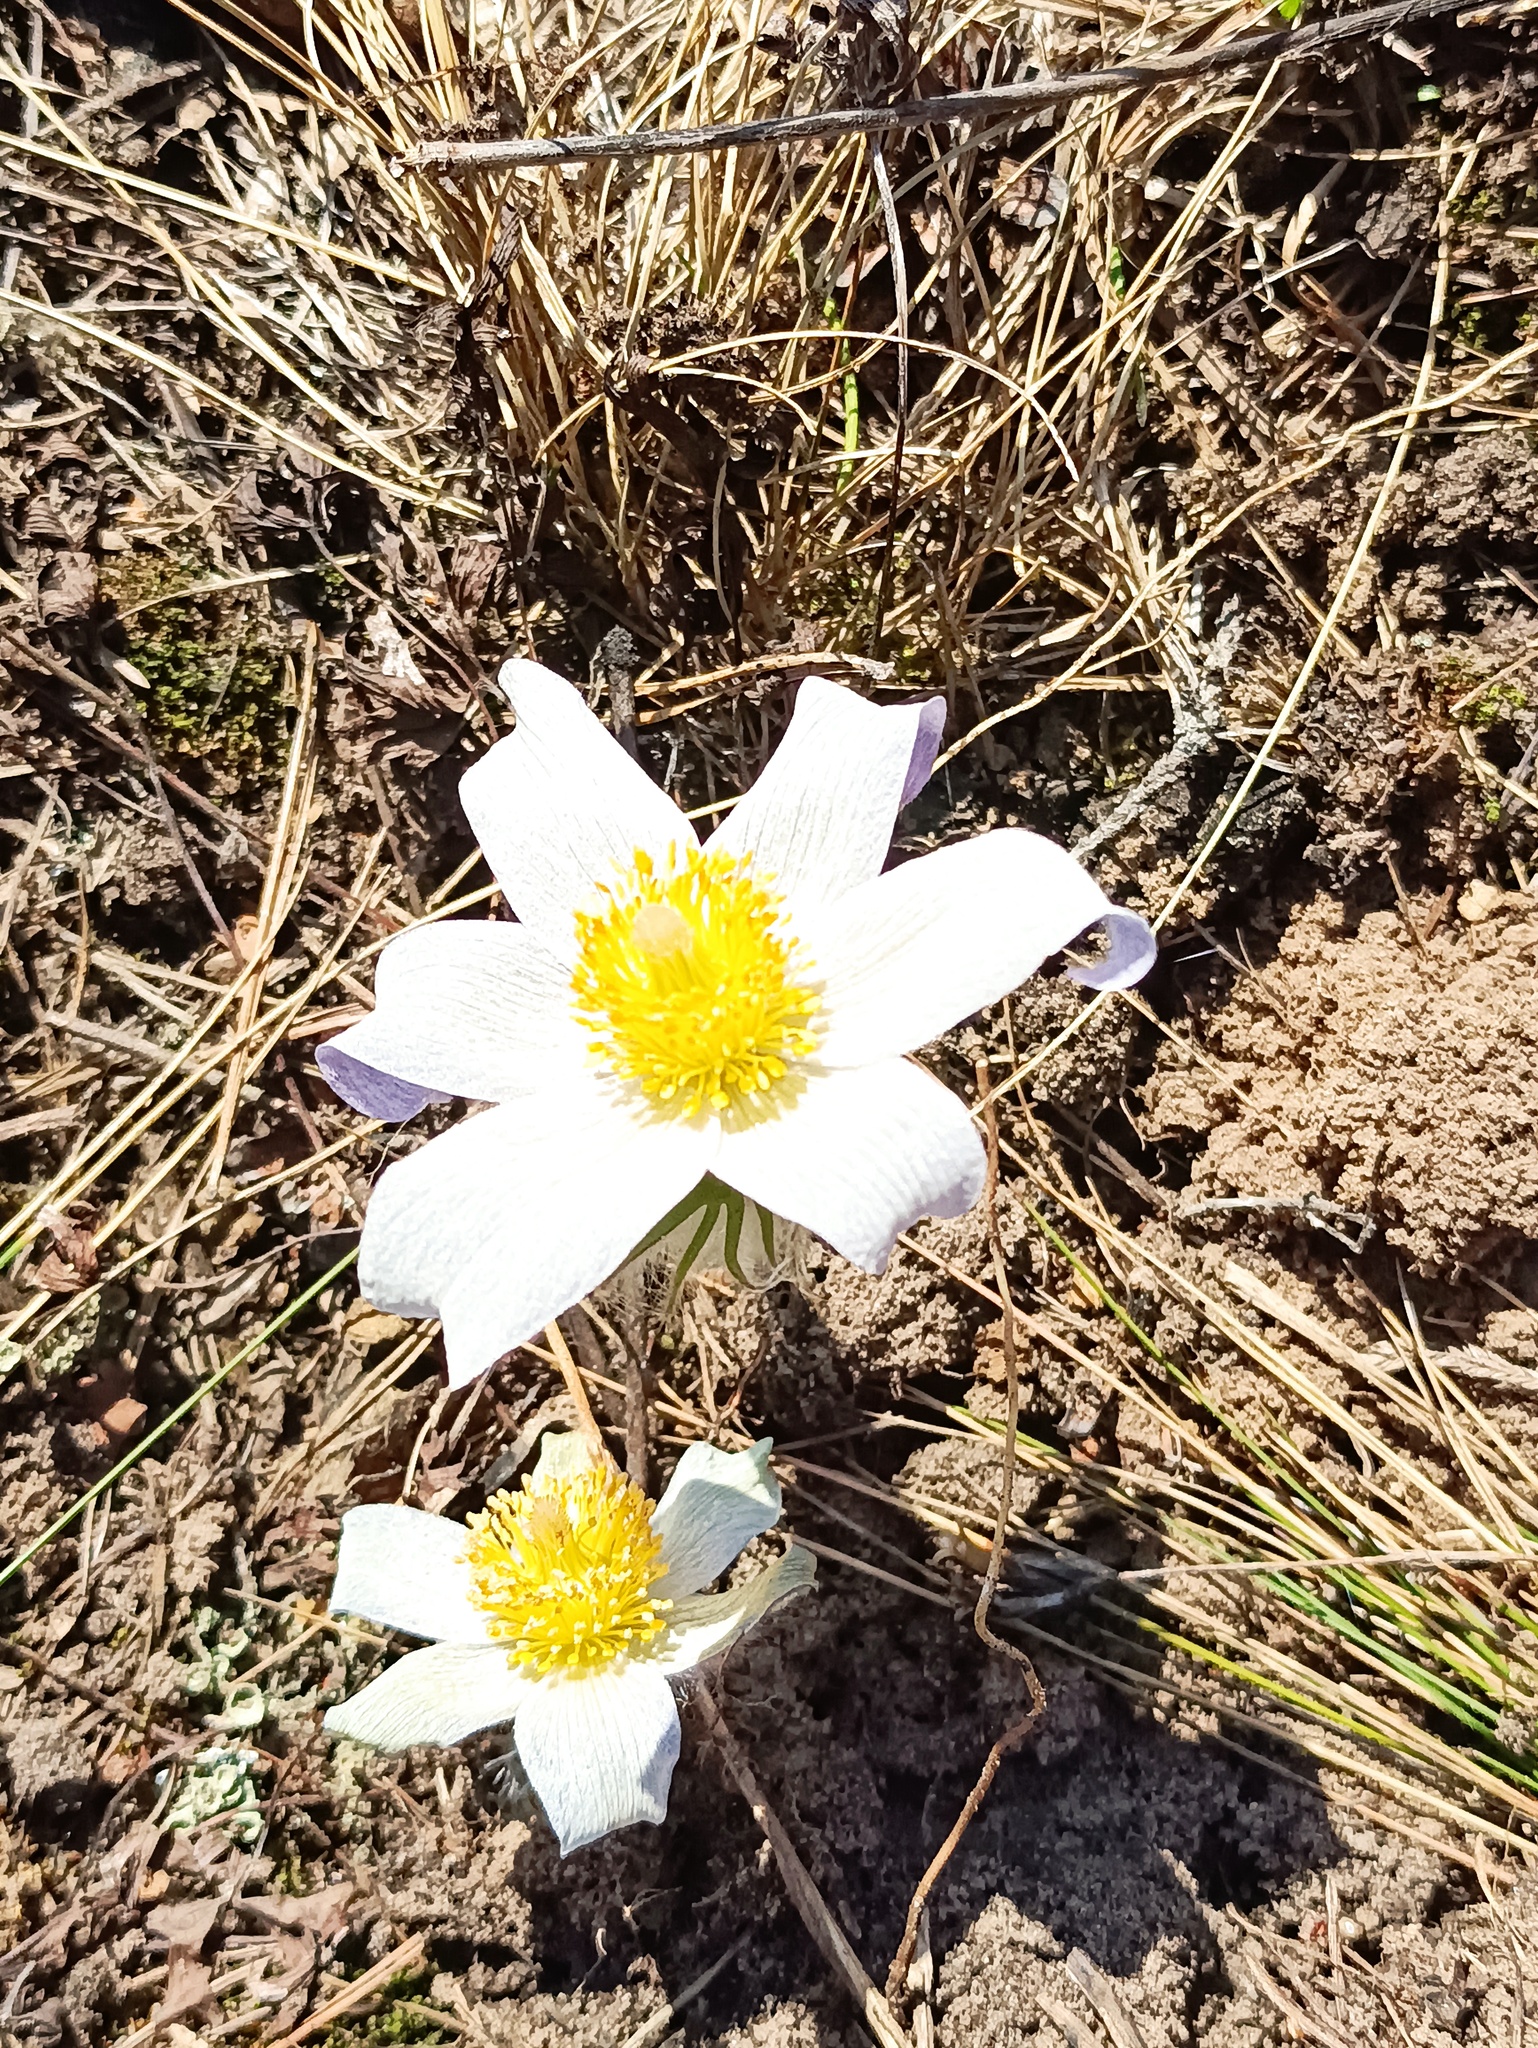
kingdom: Plantae
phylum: Tracheophyta
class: Magnoliopsida
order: Ranunculales
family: Ranunculaceae
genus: Pulsatilla
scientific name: Pulsatilla patens
